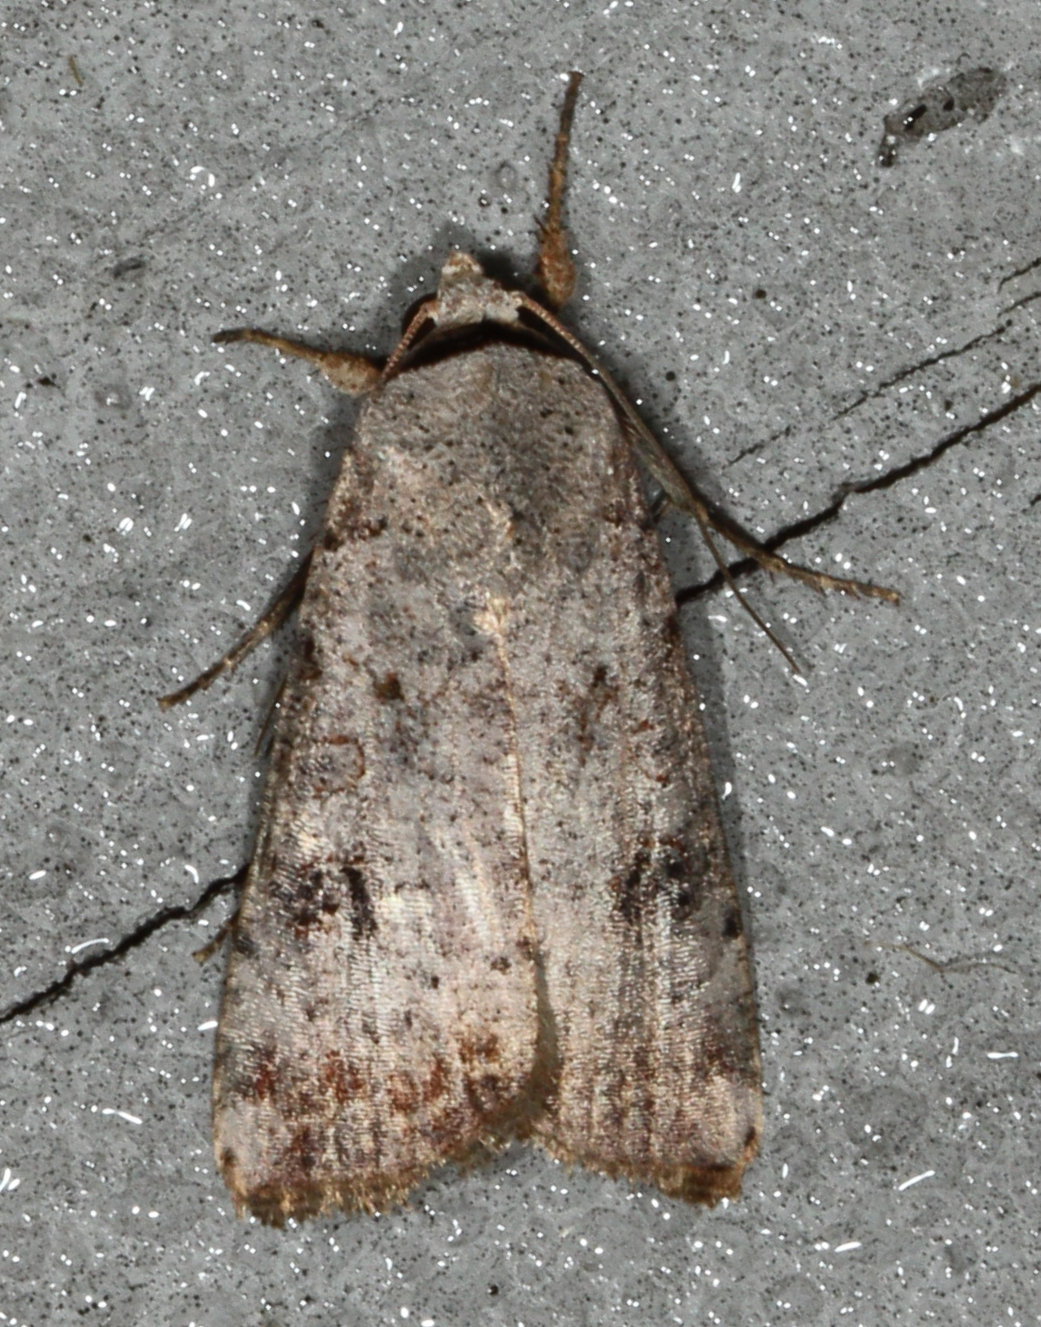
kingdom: Animalia
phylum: Arthropoda
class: Insecta
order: Lepidoptera
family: Noctuidae
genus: Anicla
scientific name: Anicla infecta
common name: Green cutworm
